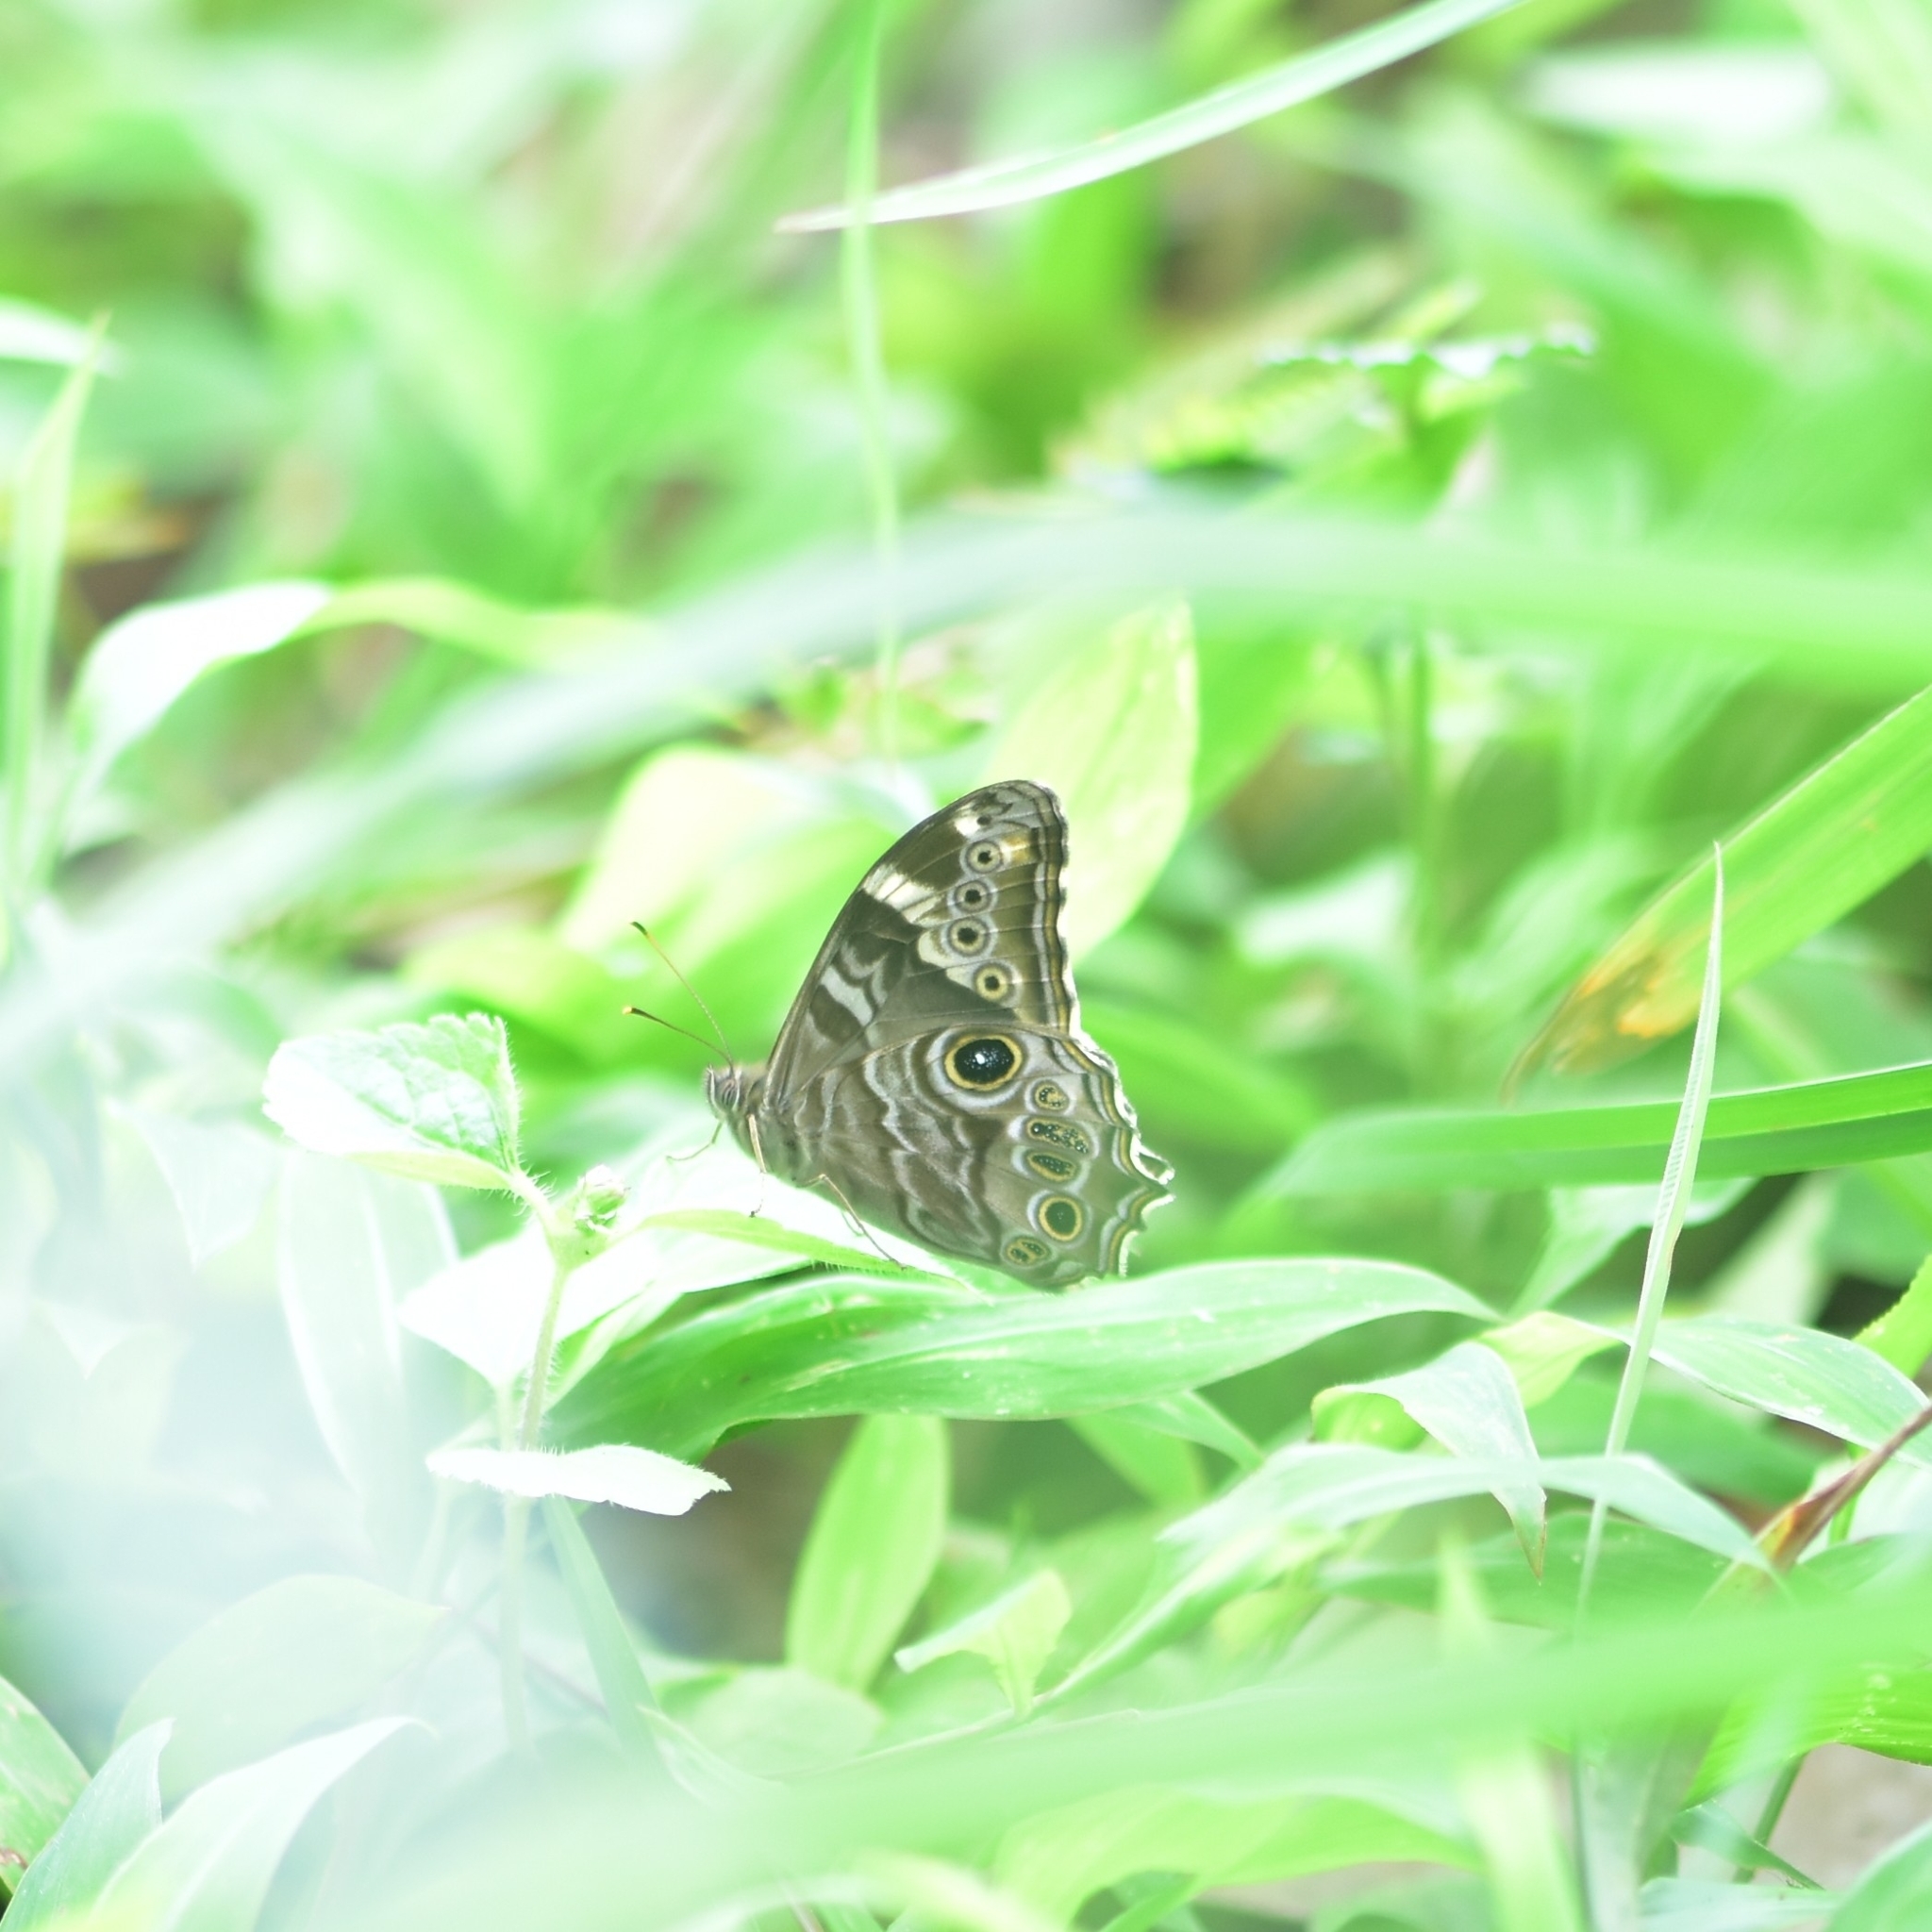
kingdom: Animalia
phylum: Arthropoda
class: Insecta
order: Lepidoptera
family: Nymphalidae
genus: Lethe
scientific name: Lethe rohria
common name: Common treebrown
